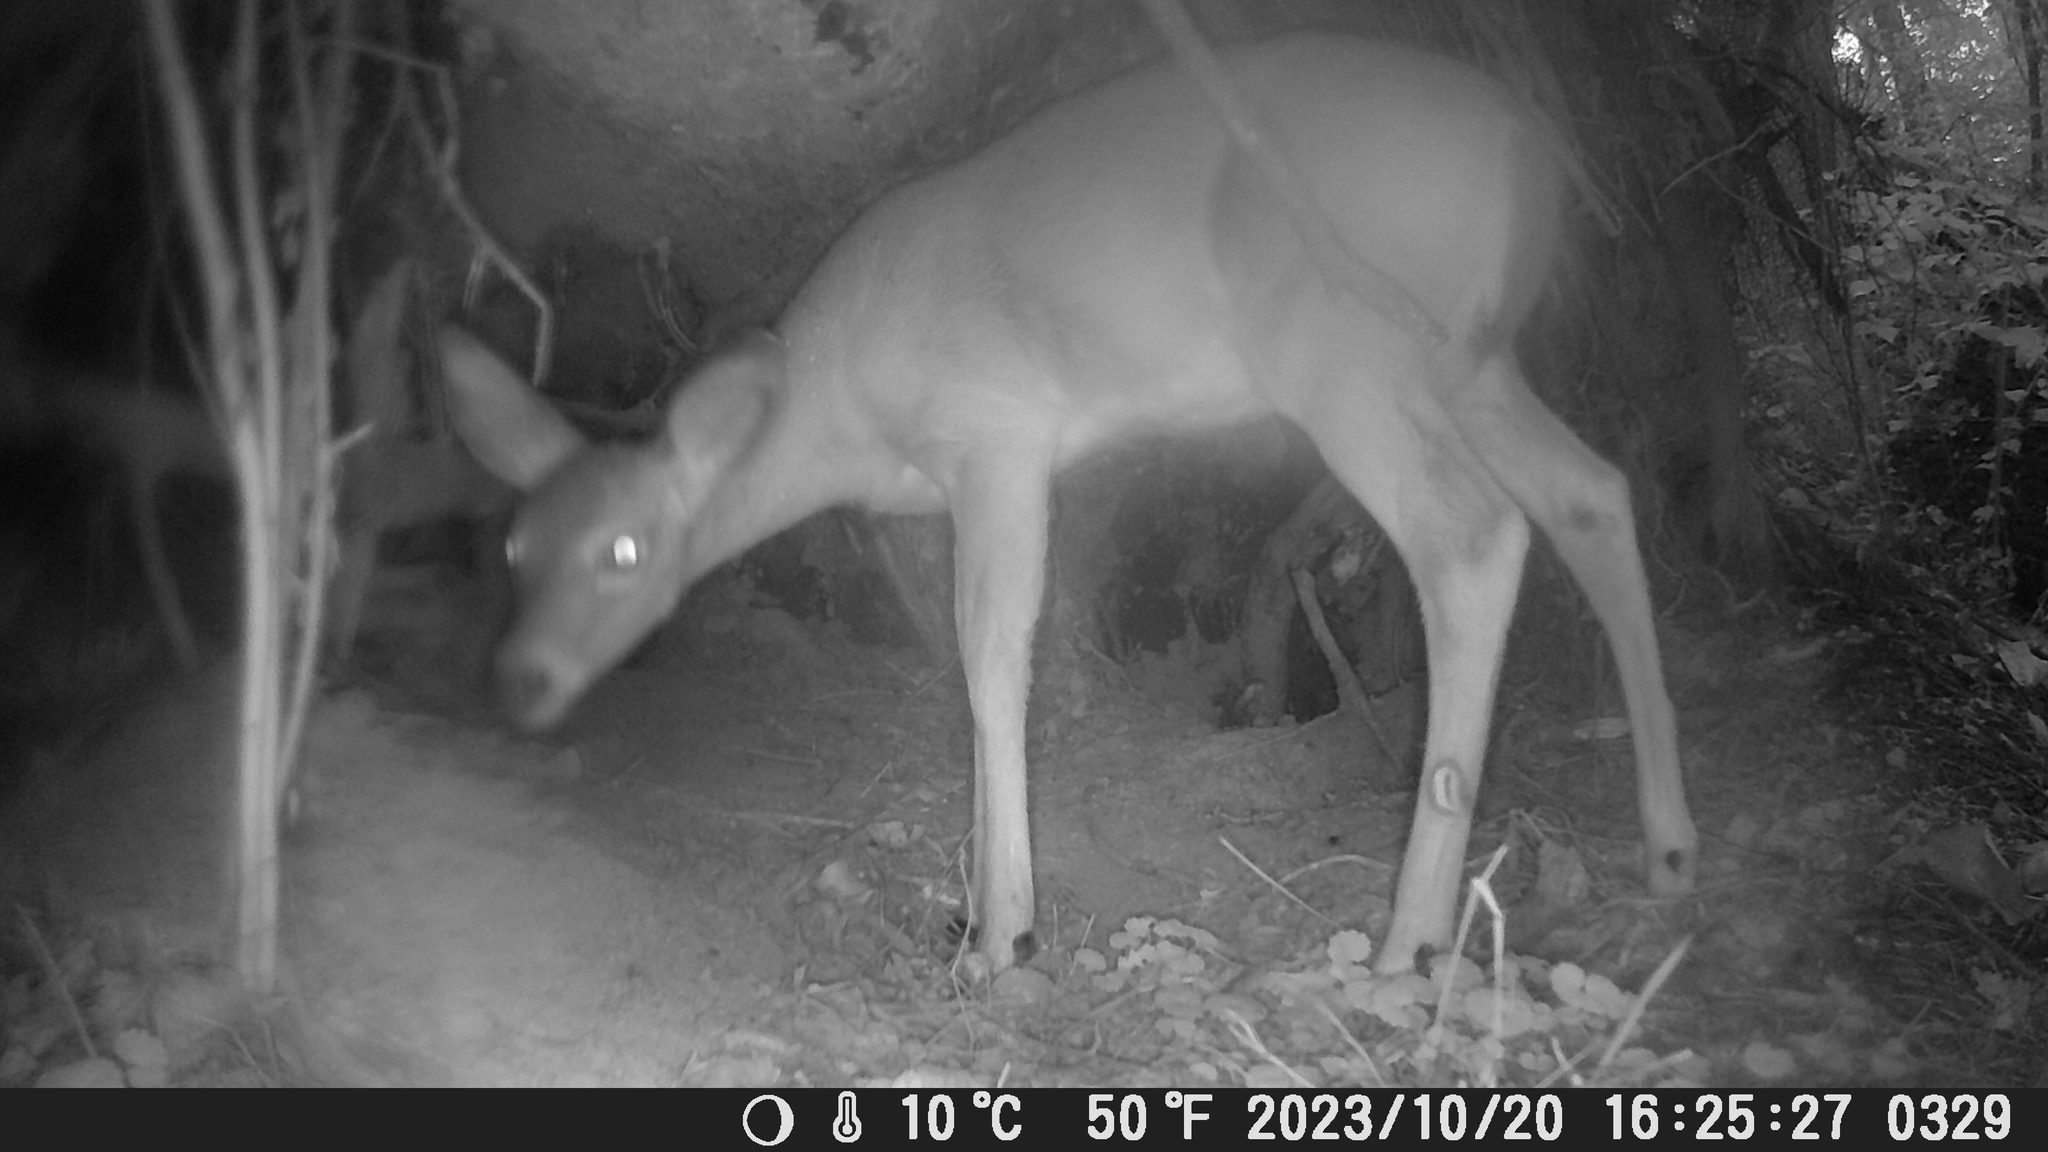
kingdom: Animalia
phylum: Chordata
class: Mammalia
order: Artiodactyla
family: Cervidae
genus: Odocoileus
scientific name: Odocoileus virginianus
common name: White-tailed deer
